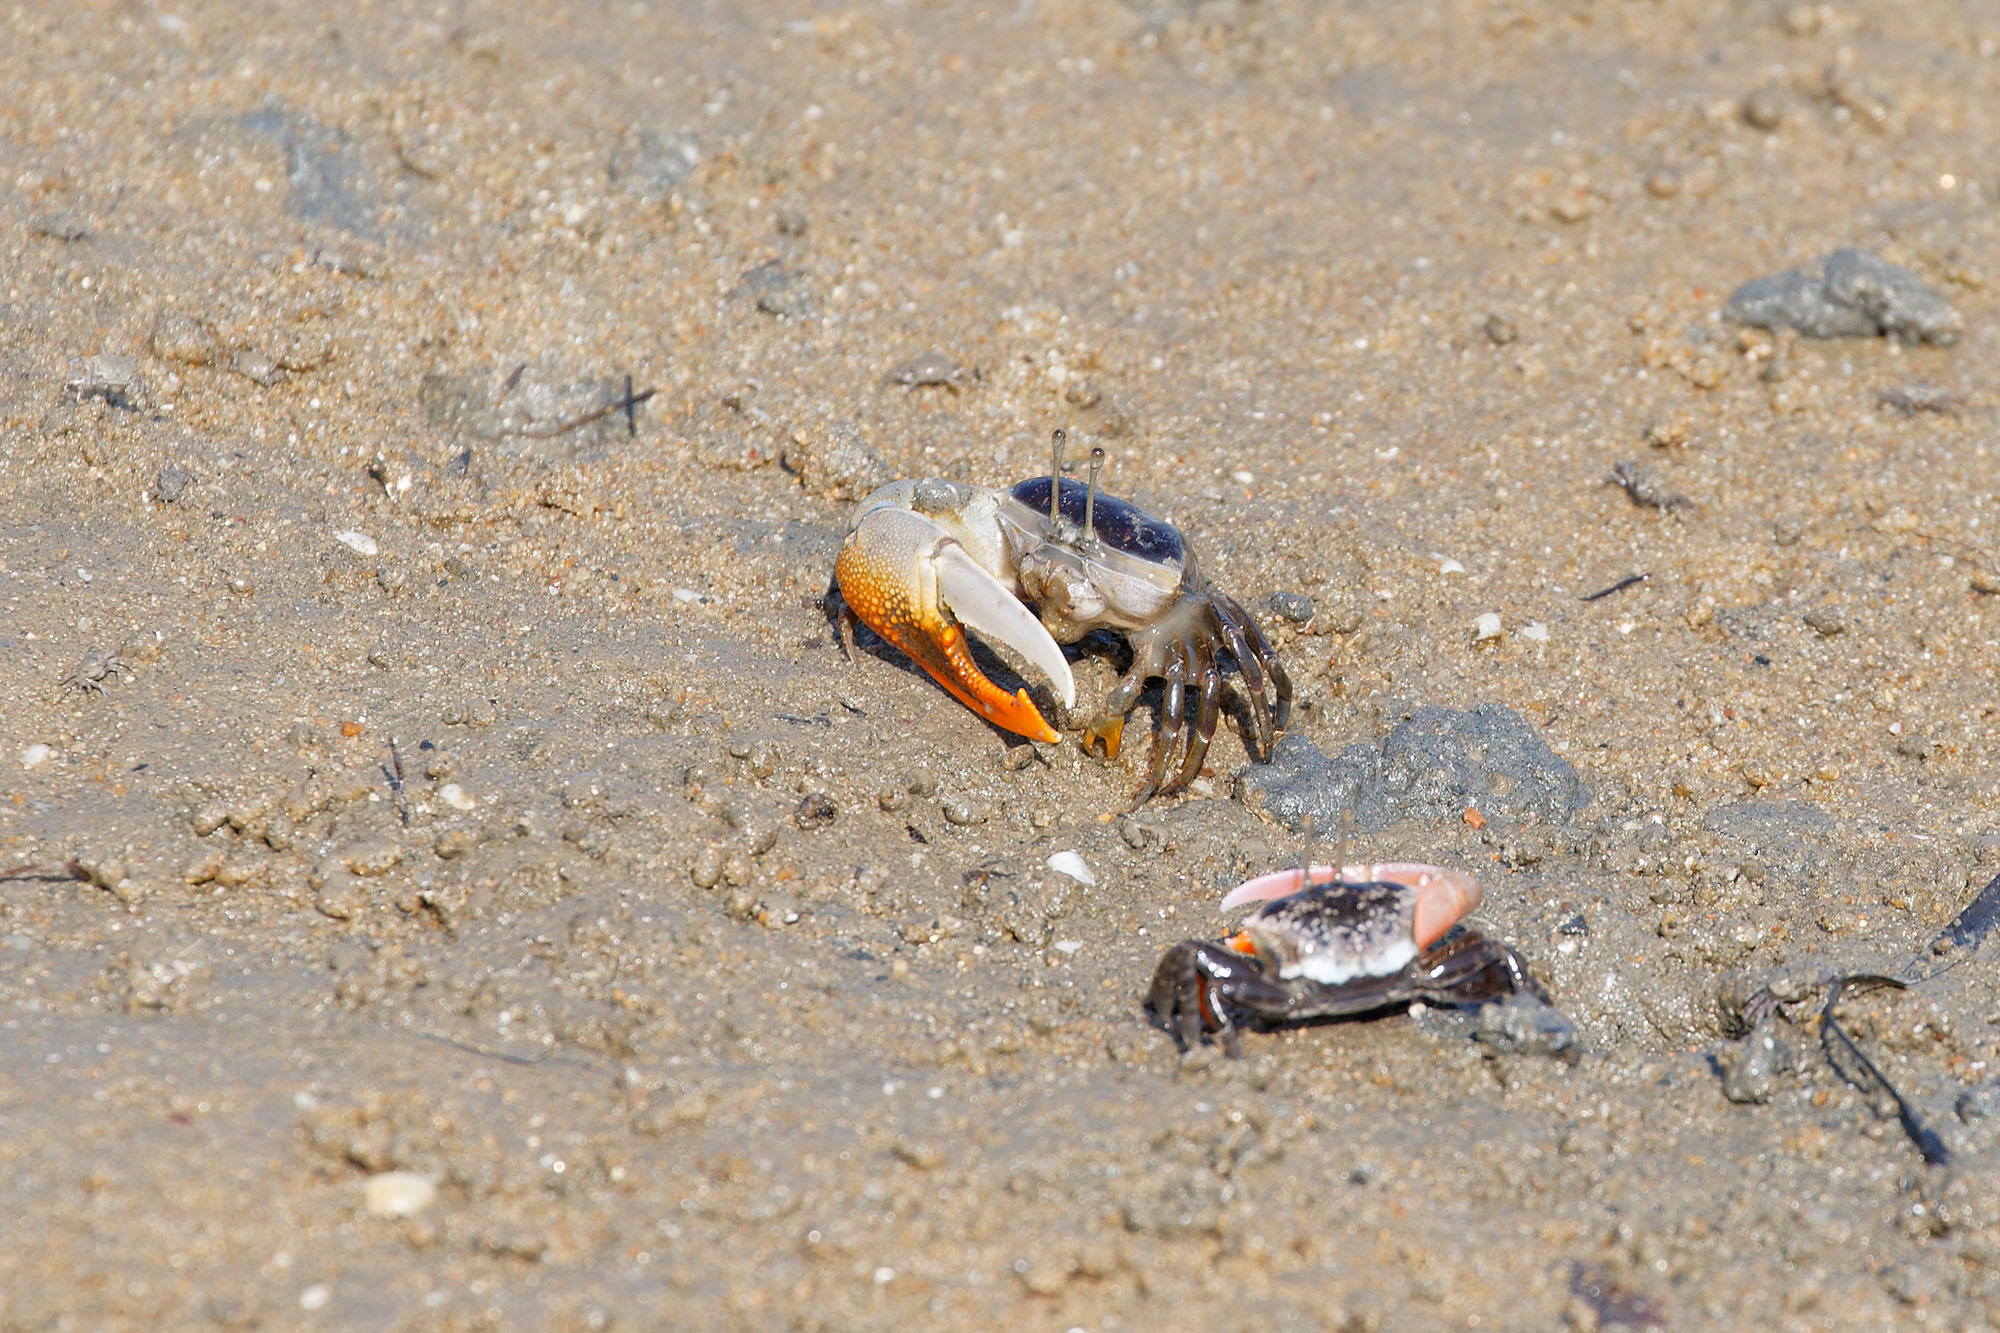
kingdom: Animalia
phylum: Arthropoda
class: Malacostraca
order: Decapoda
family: Ocypodidae
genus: Gelasimus
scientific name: Gelasimus vomeris
